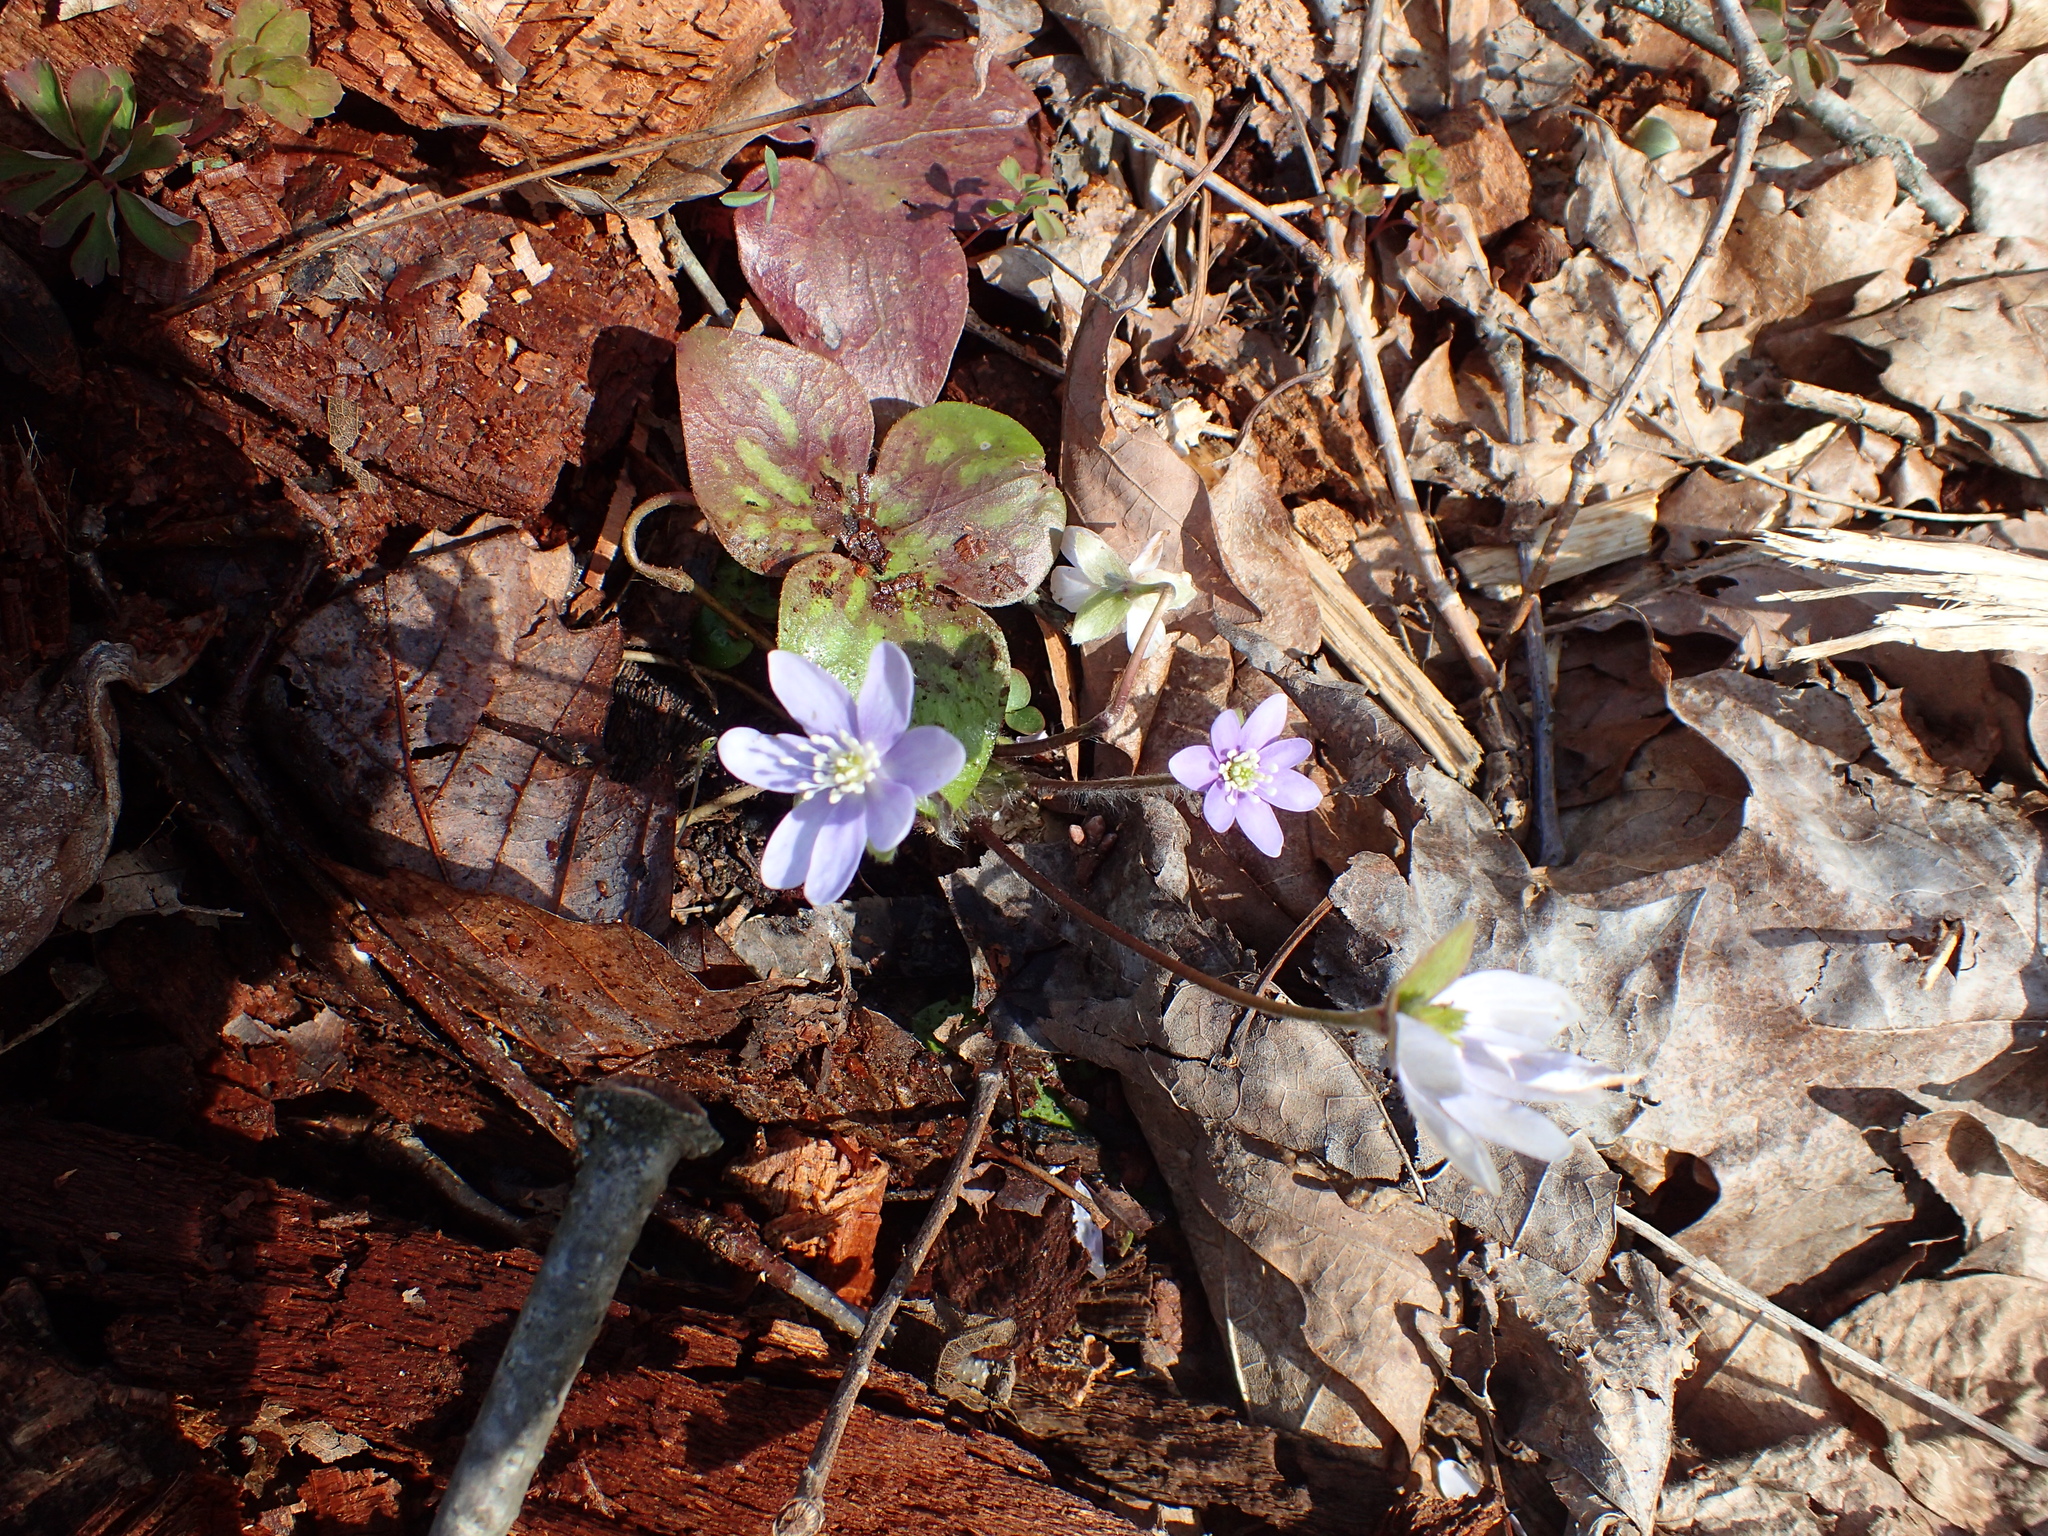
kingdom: Plantae
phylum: Tracheophyta
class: Magnoliopsida
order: Ranunculales
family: Ranunculaceae
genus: Hepatica
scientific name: Hepatica acutiloba
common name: Sharp-lobed hepatica
